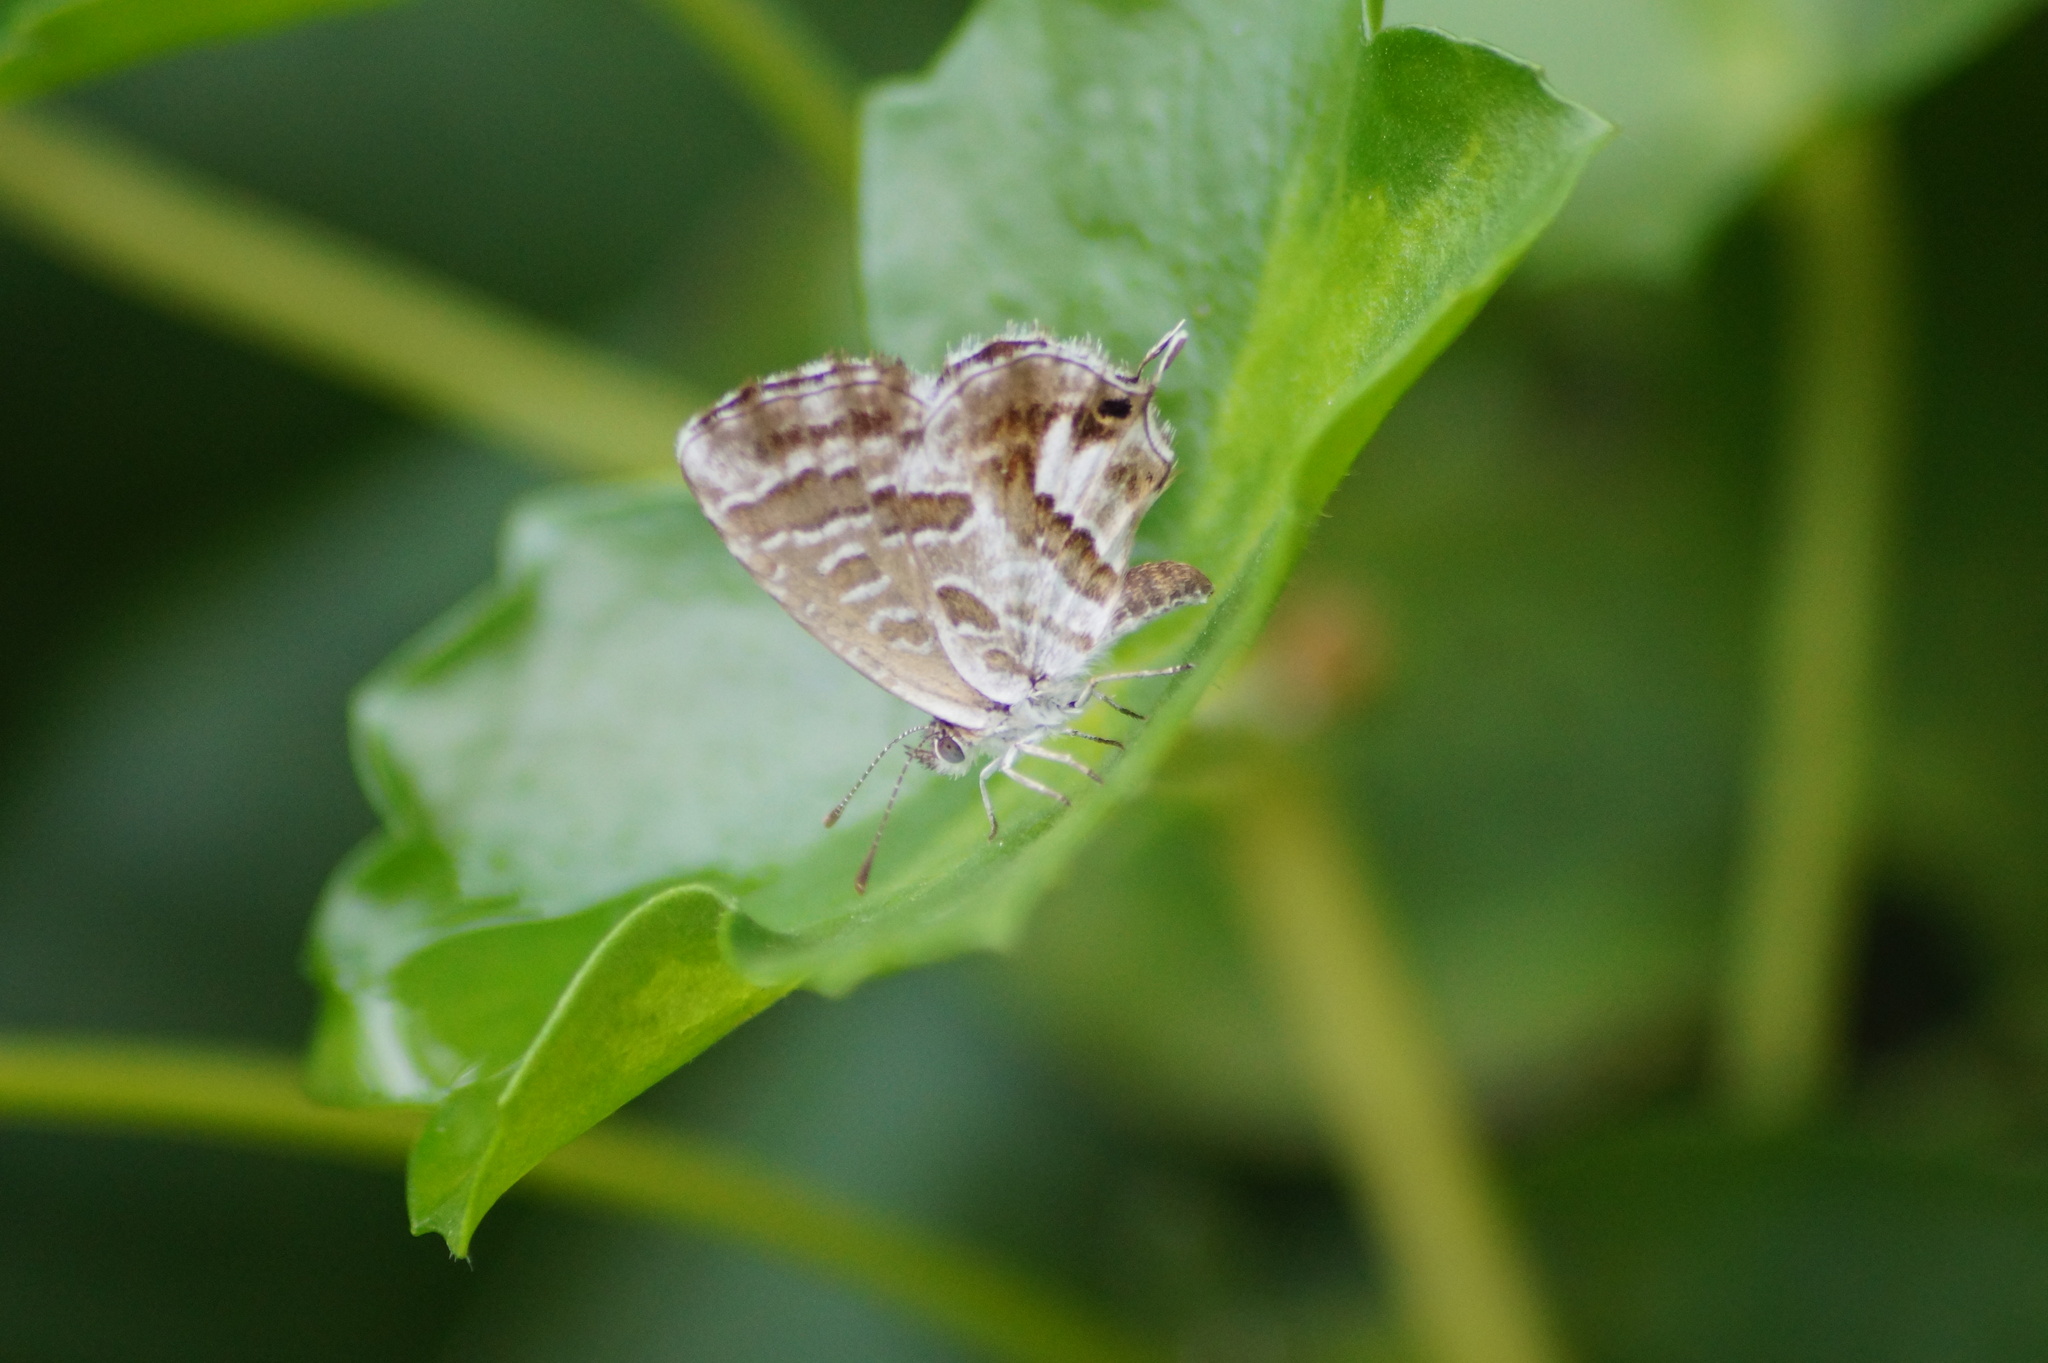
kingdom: Animalia
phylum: Arthropoda
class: Insecta
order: Lepidoptera
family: Lycaenidae
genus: Cacyreus
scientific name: Cacyreus marshalli
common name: Geranium bronze
